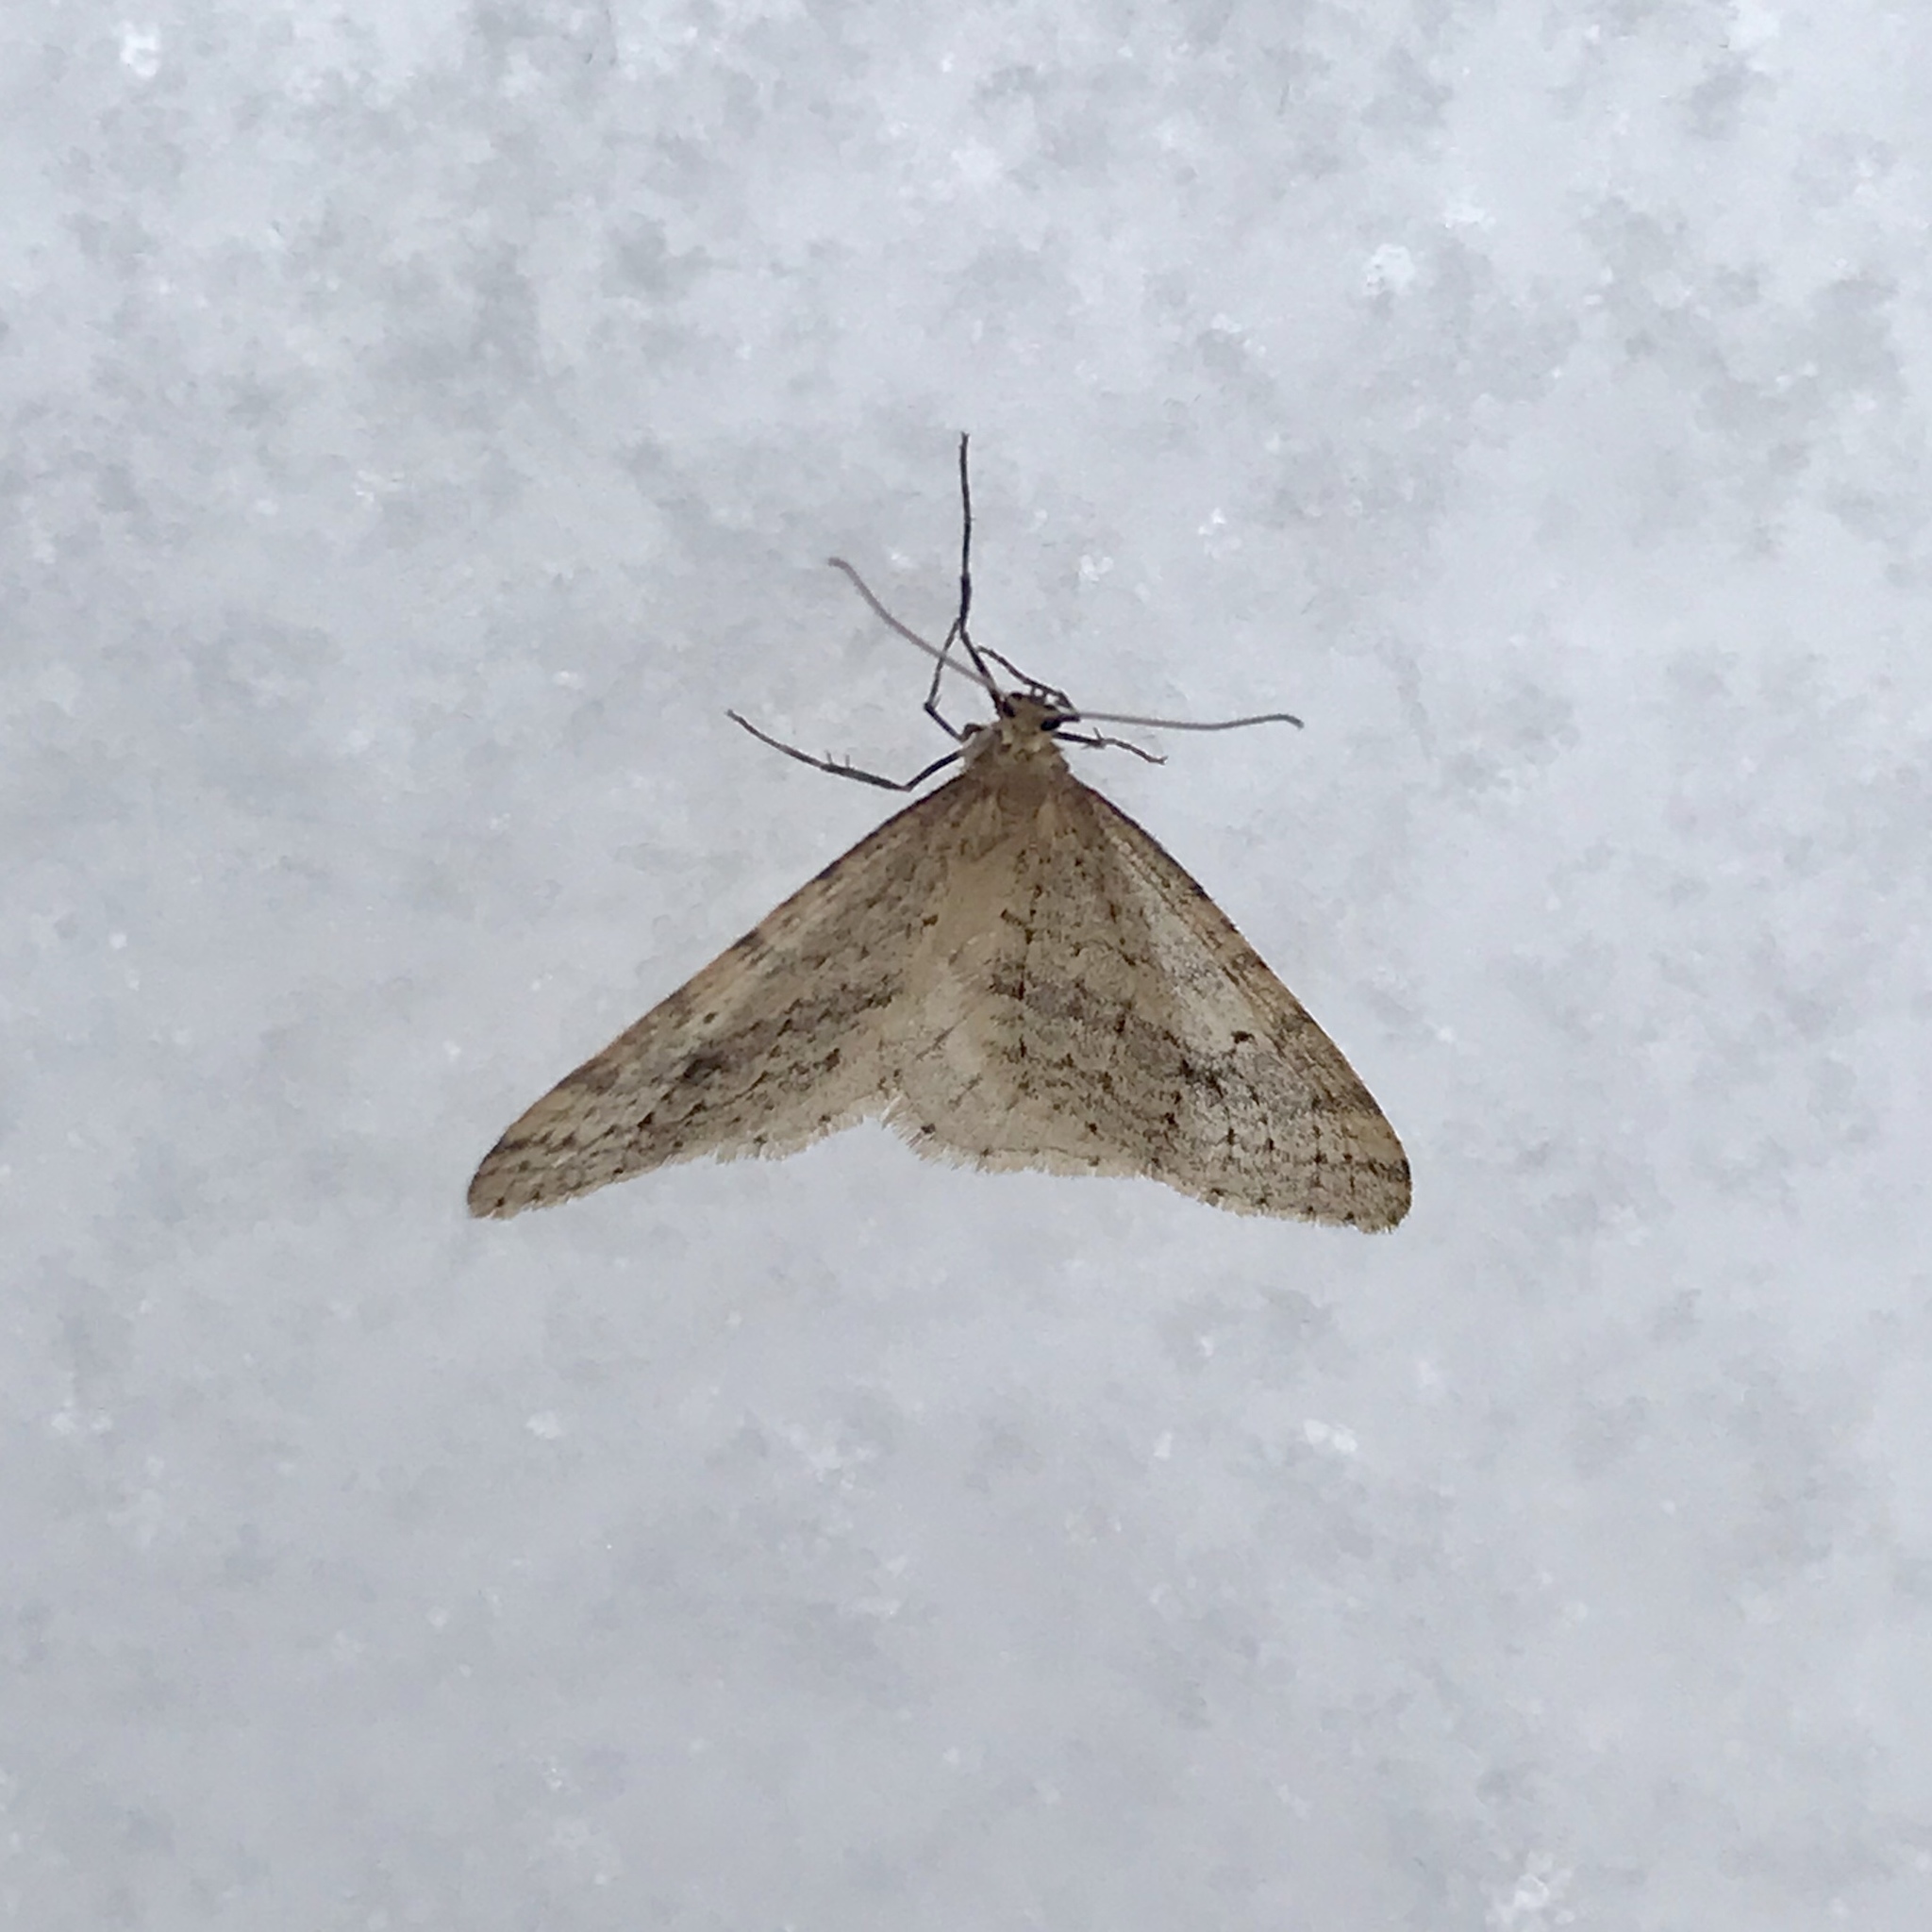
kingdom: Animalia
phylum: Arthropoda
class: Insecta
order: Lepidoptera
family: Geometridae
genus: Operophtera
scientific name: Operophtera bruceata
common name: Bruce spanworm
